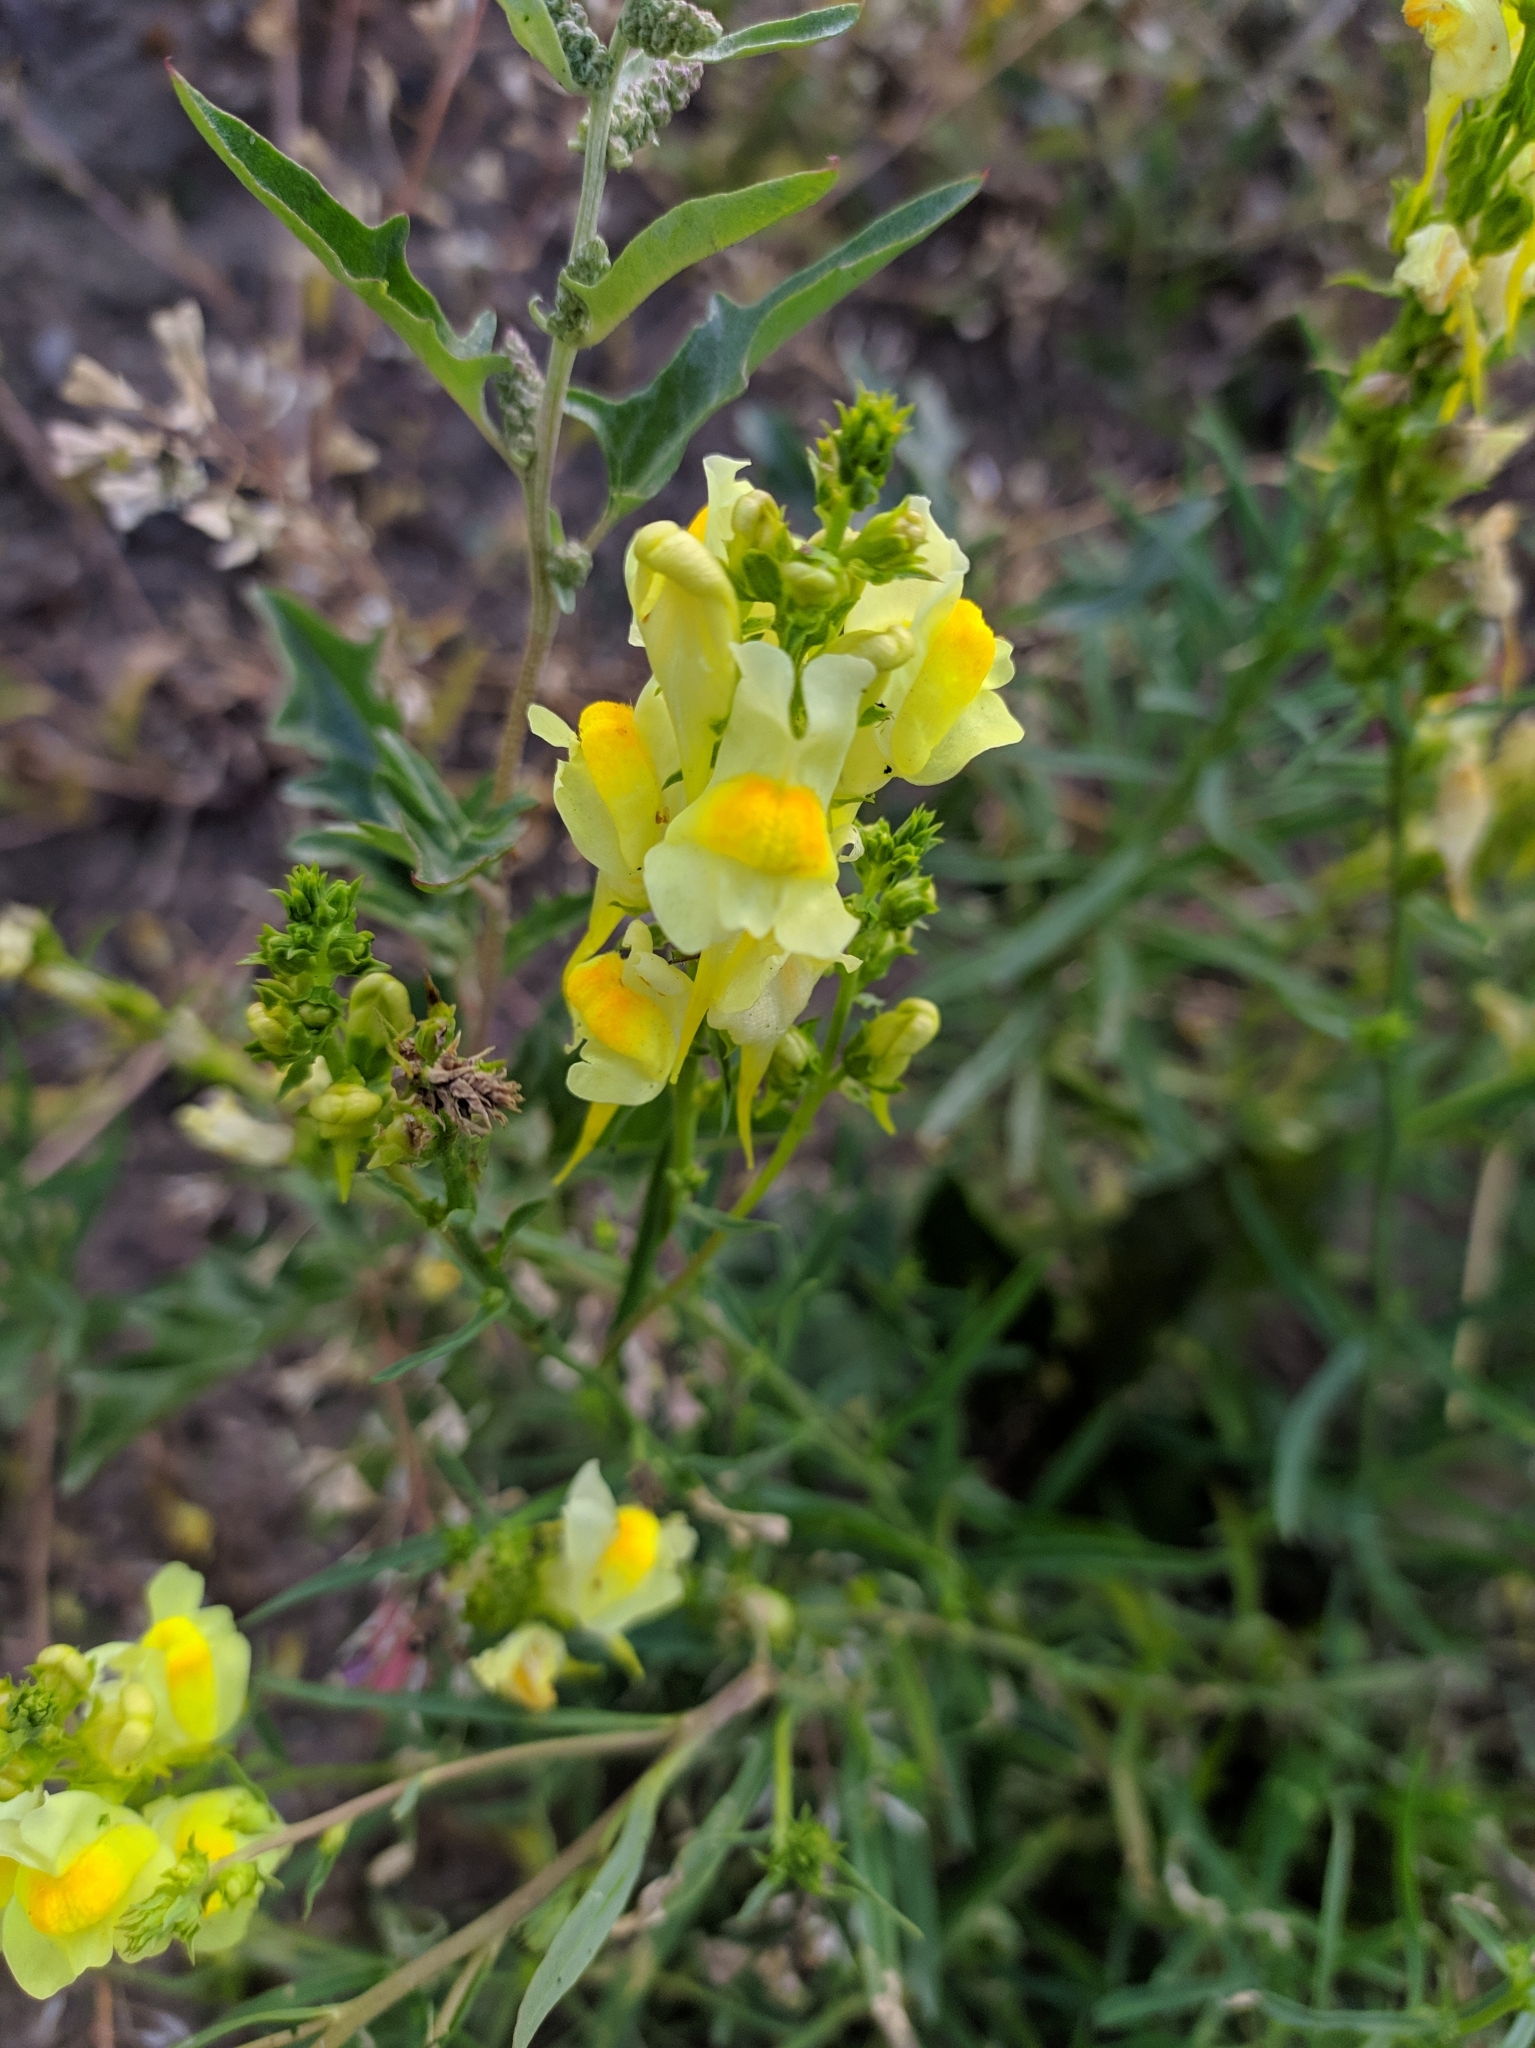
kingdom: Plantae
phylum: Tracheophyta
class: Magnoliopsida
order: Lamiales
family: Plantaginaceae
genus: Linaria
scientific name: Linaria vulgaris
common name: Butter and eggs
